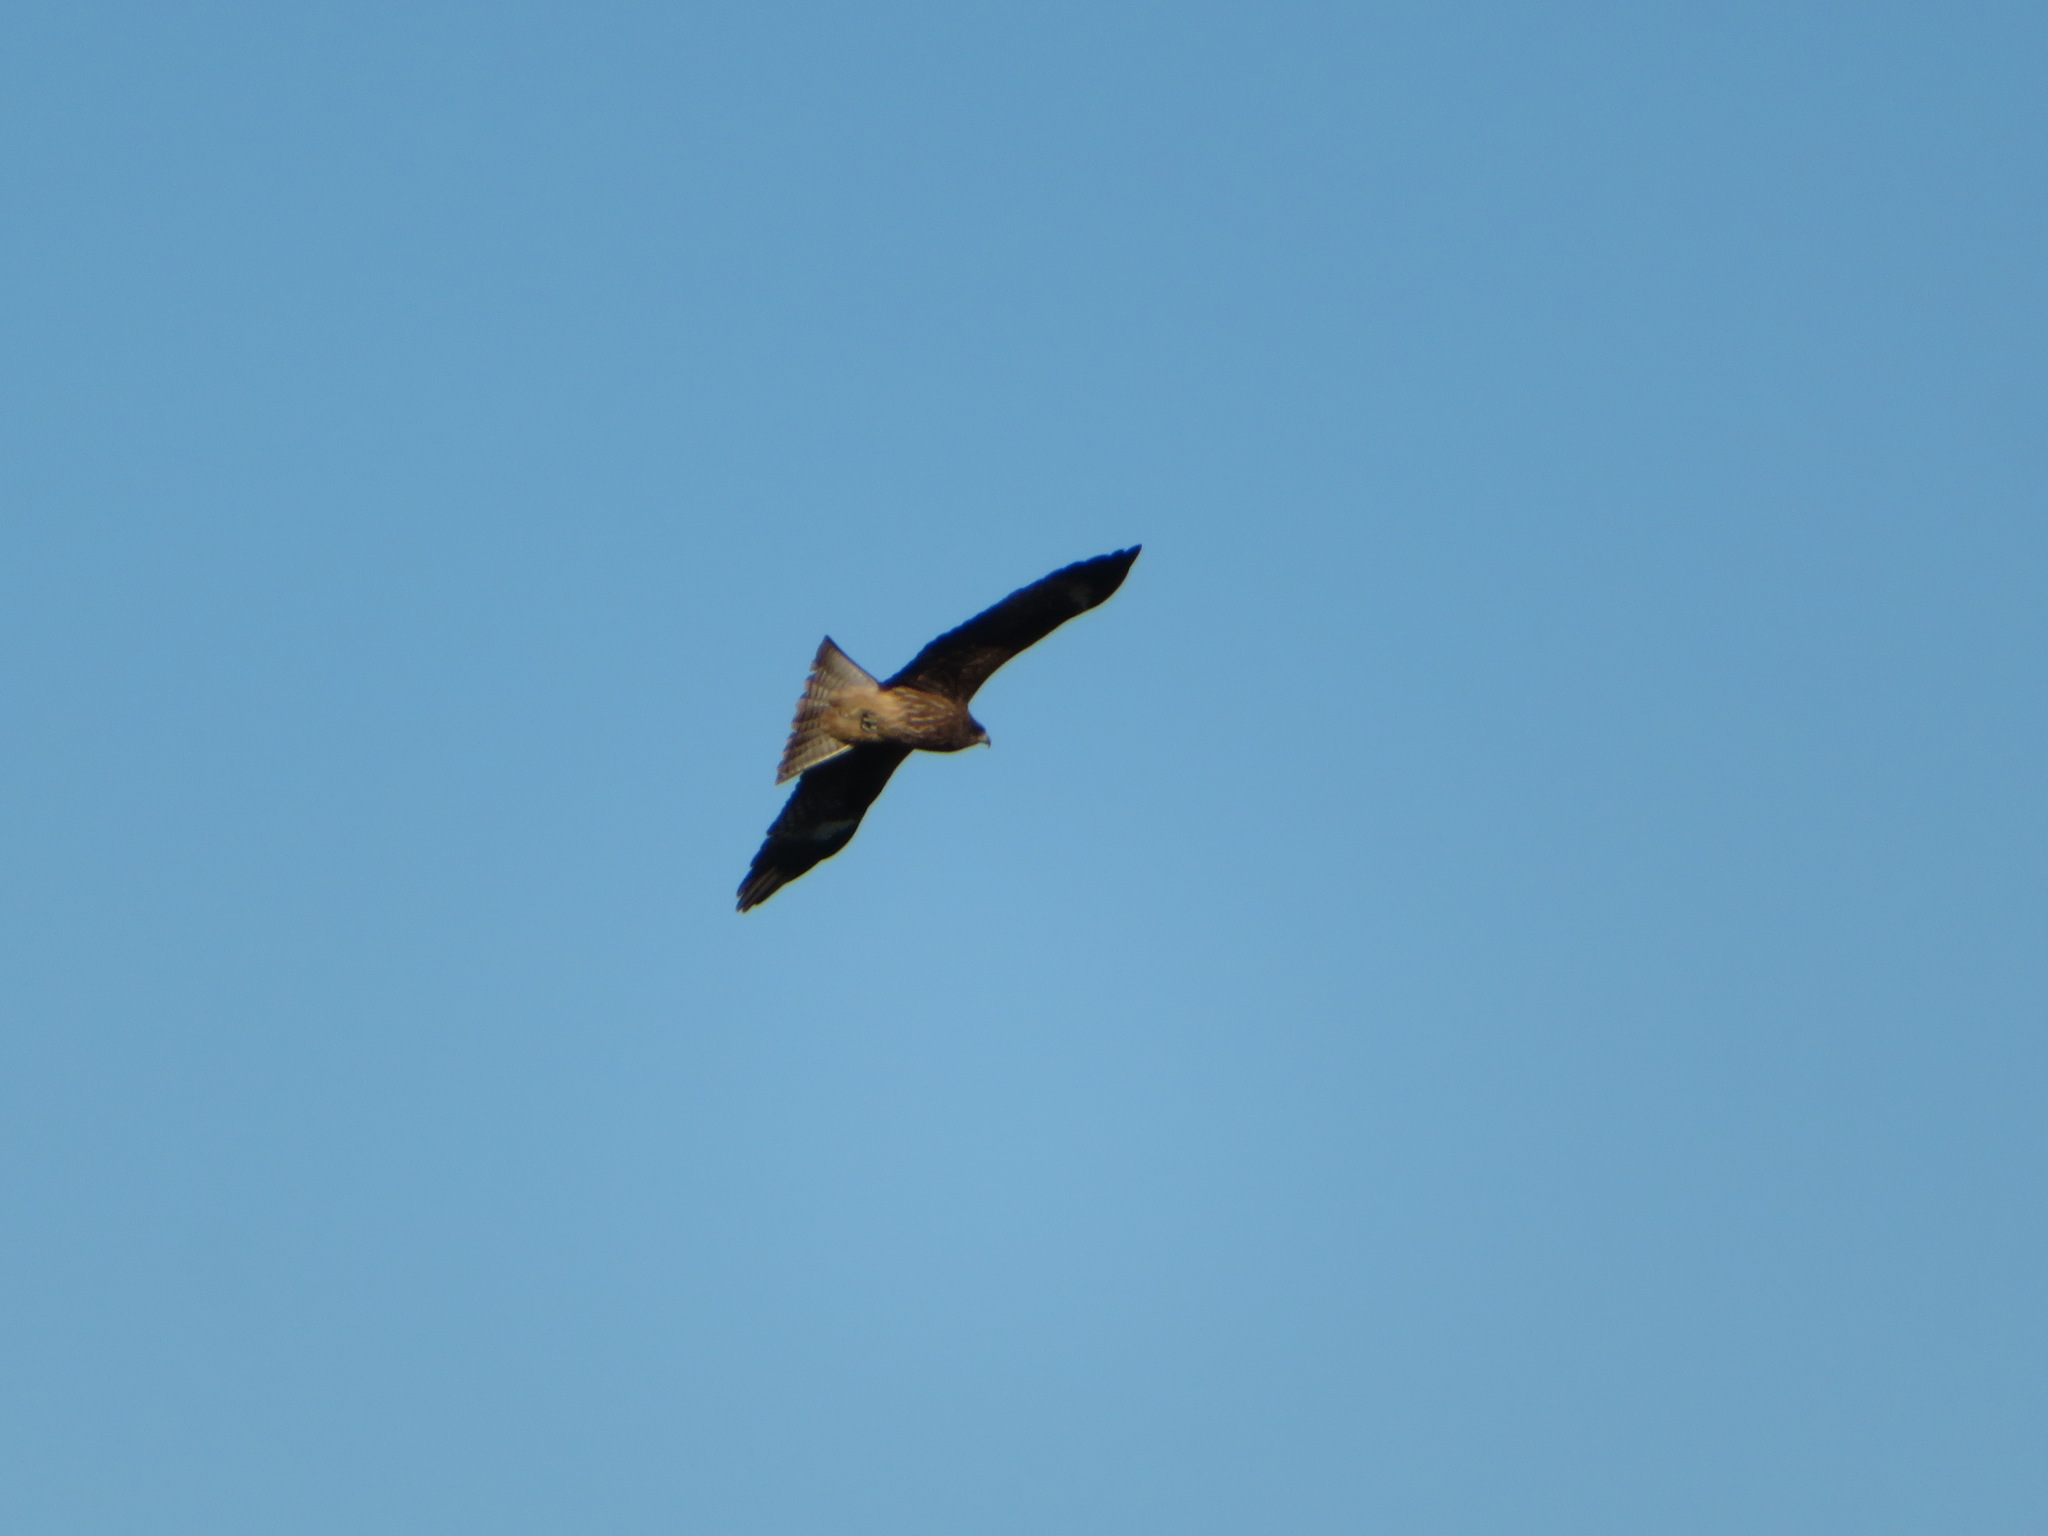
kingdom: Animalia
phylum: Chordata
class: Aves
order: Accipitriformes
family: Accipitridae
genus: Milvus
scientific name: Milvus migrans
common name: Black kite
